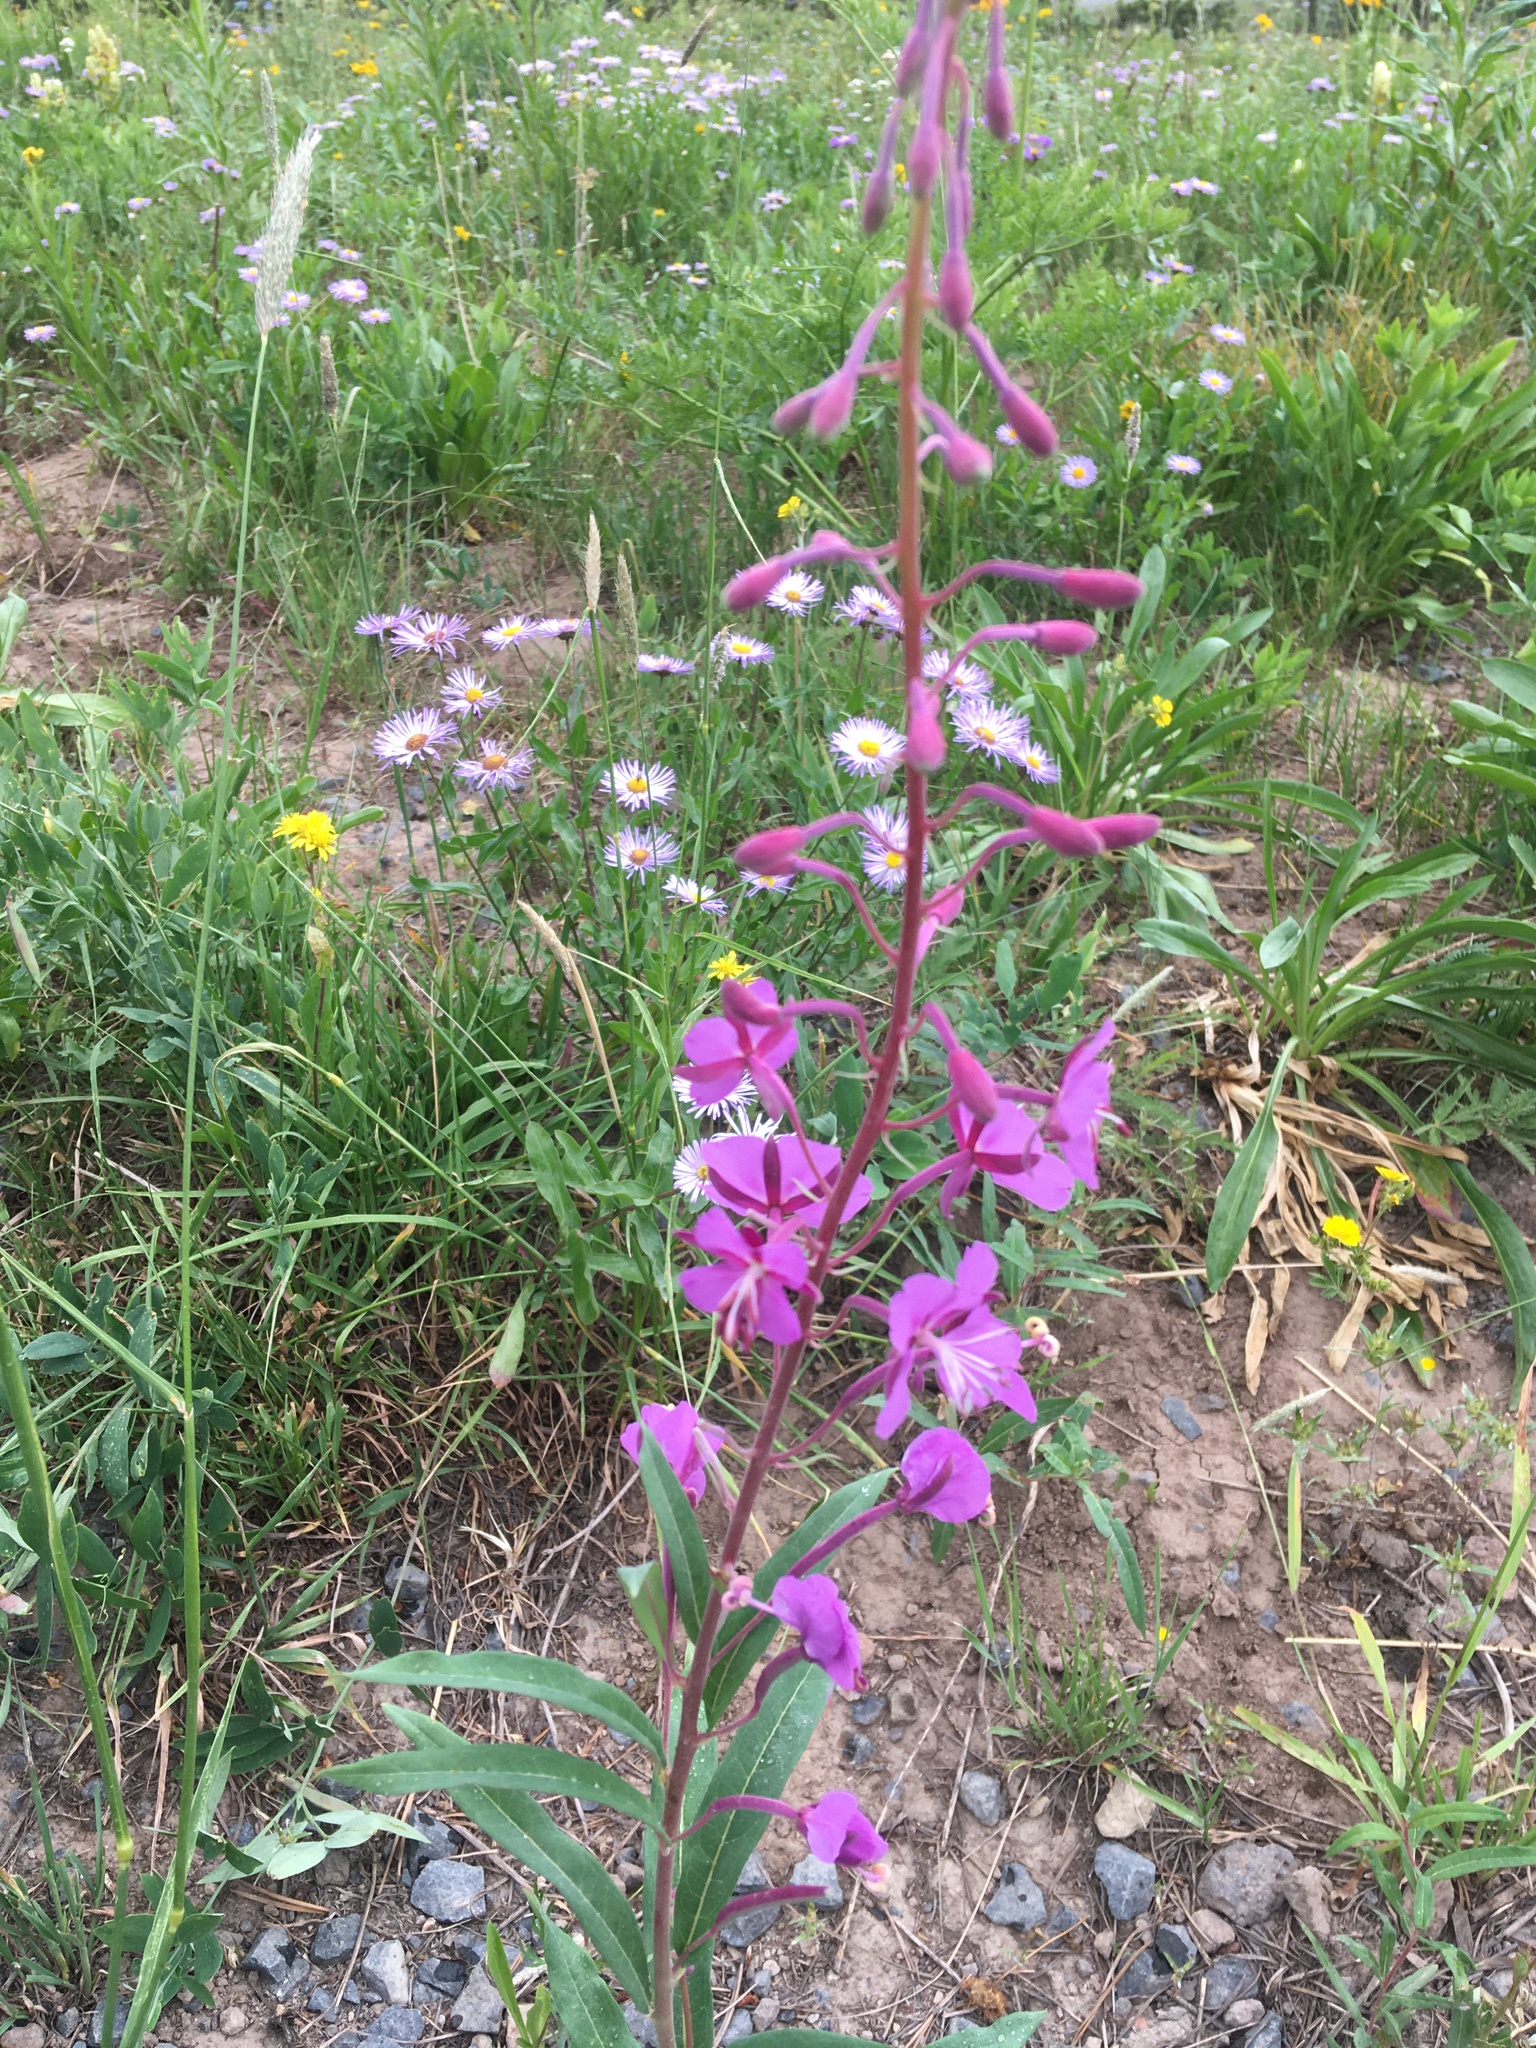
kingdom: Plantae
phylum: Tracheophyta
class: Magnoliopsida
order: Myrtales
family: Onagraceae
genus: Chamaenerion
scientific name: Chamaenerion angustifolium
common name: Fireweed
